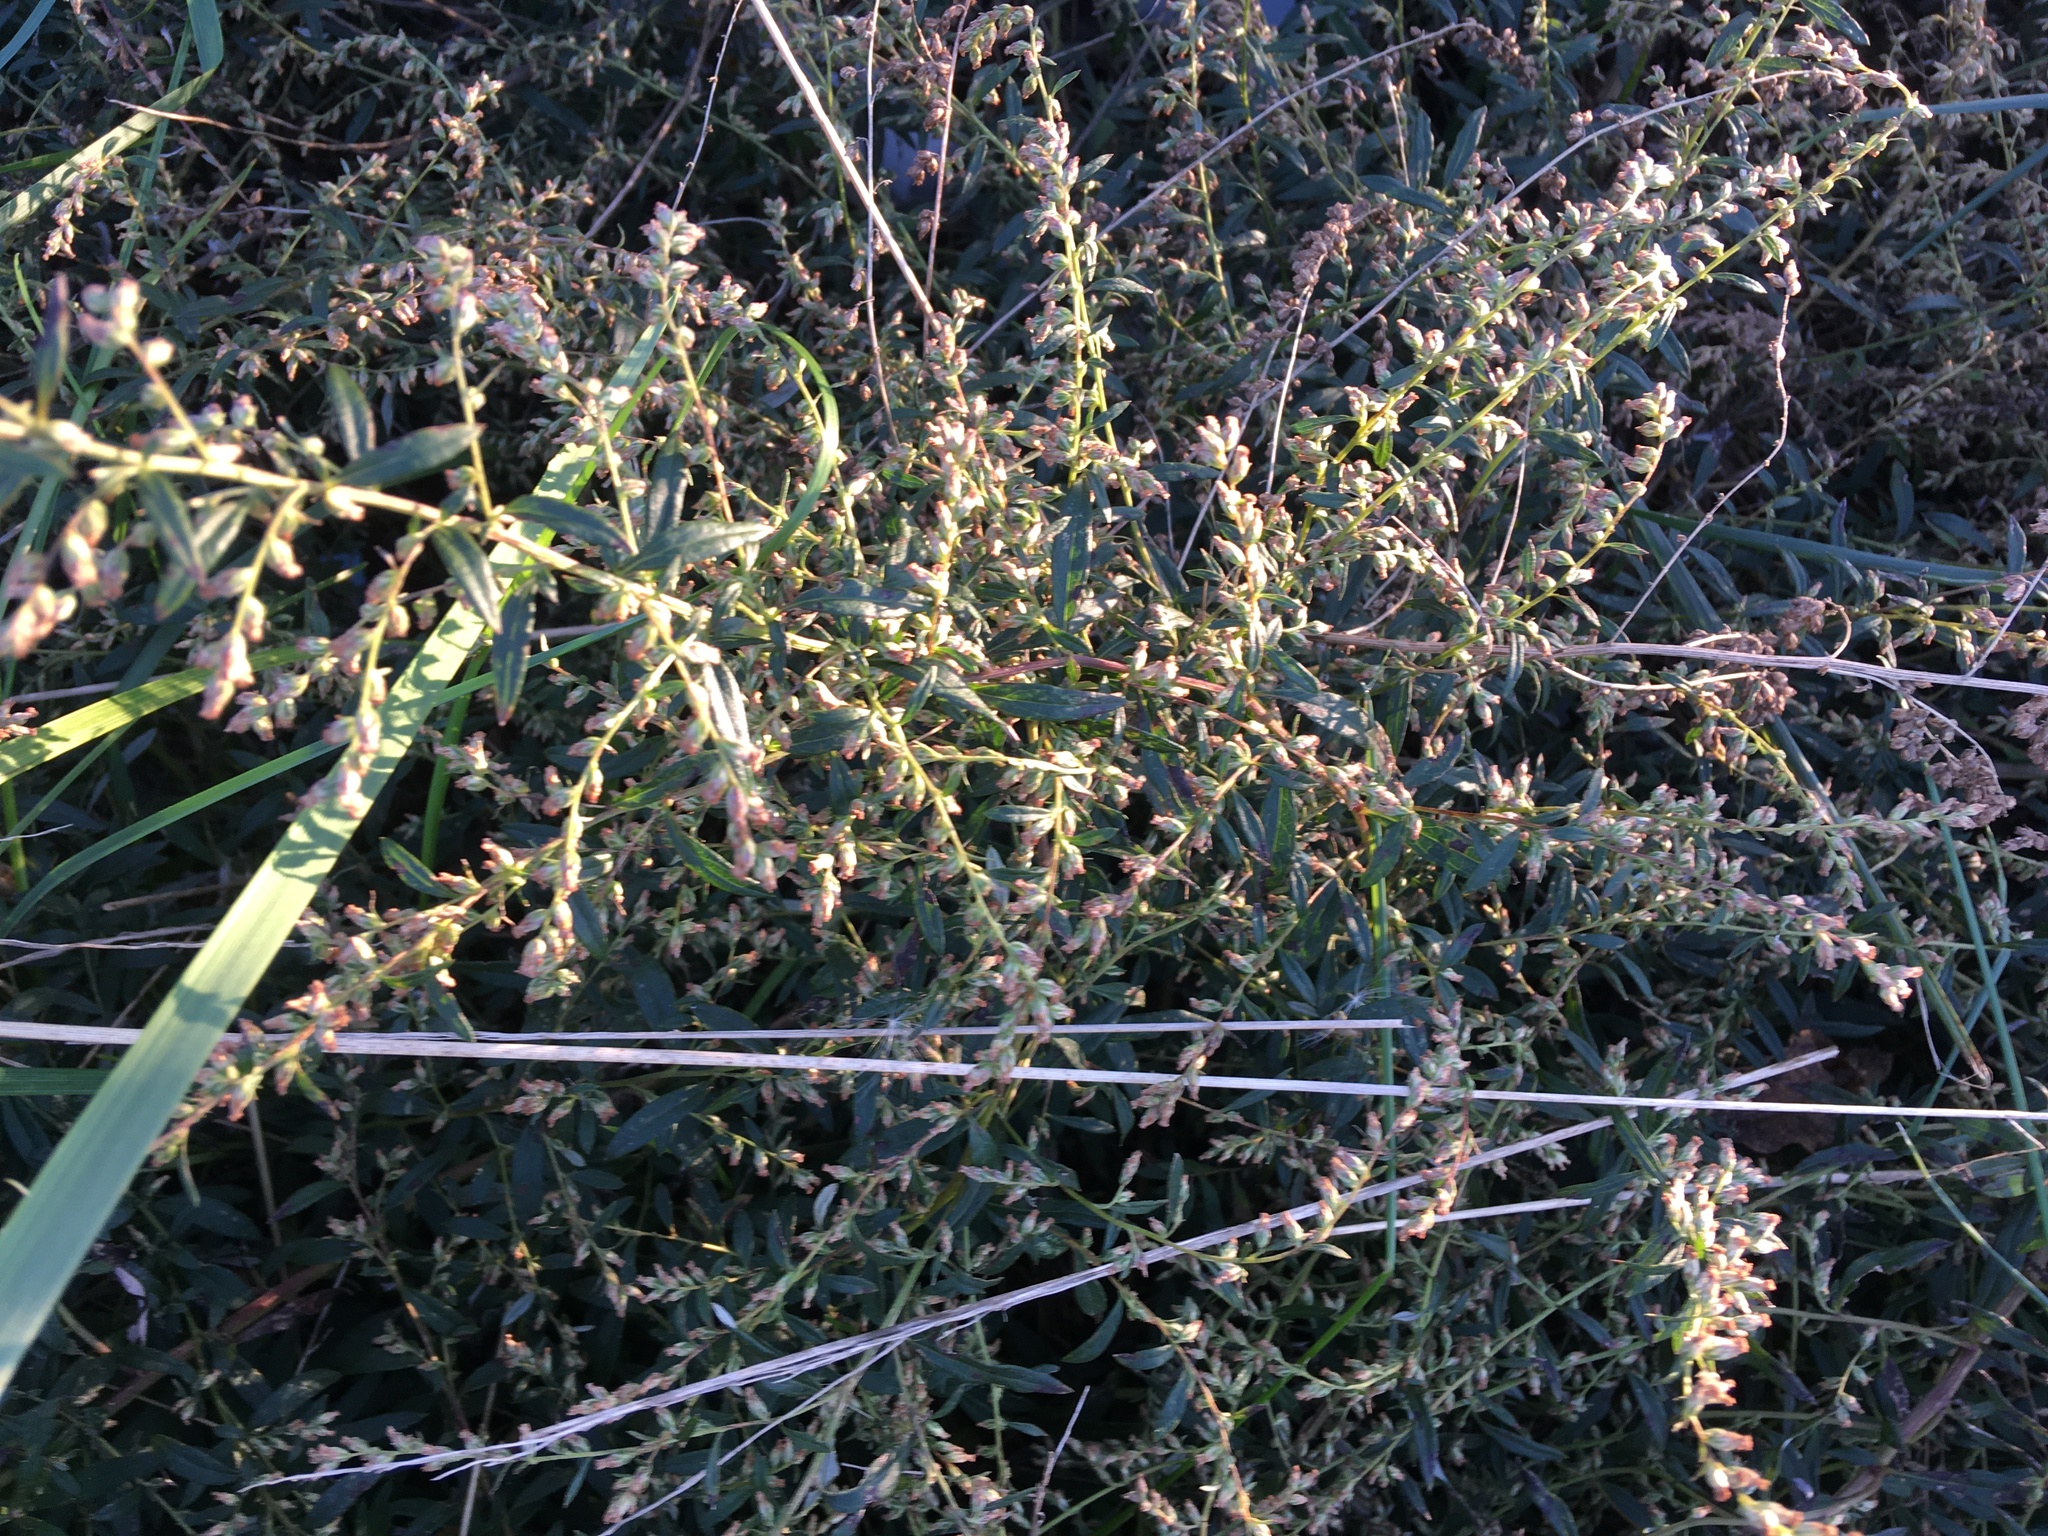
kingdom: Plantae
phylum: Tracheophyta
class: Magnoliopsida
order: Asterales
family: Asteraceae
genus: Artemisia
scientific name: Artemisia vulgaris
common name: Mugwort
